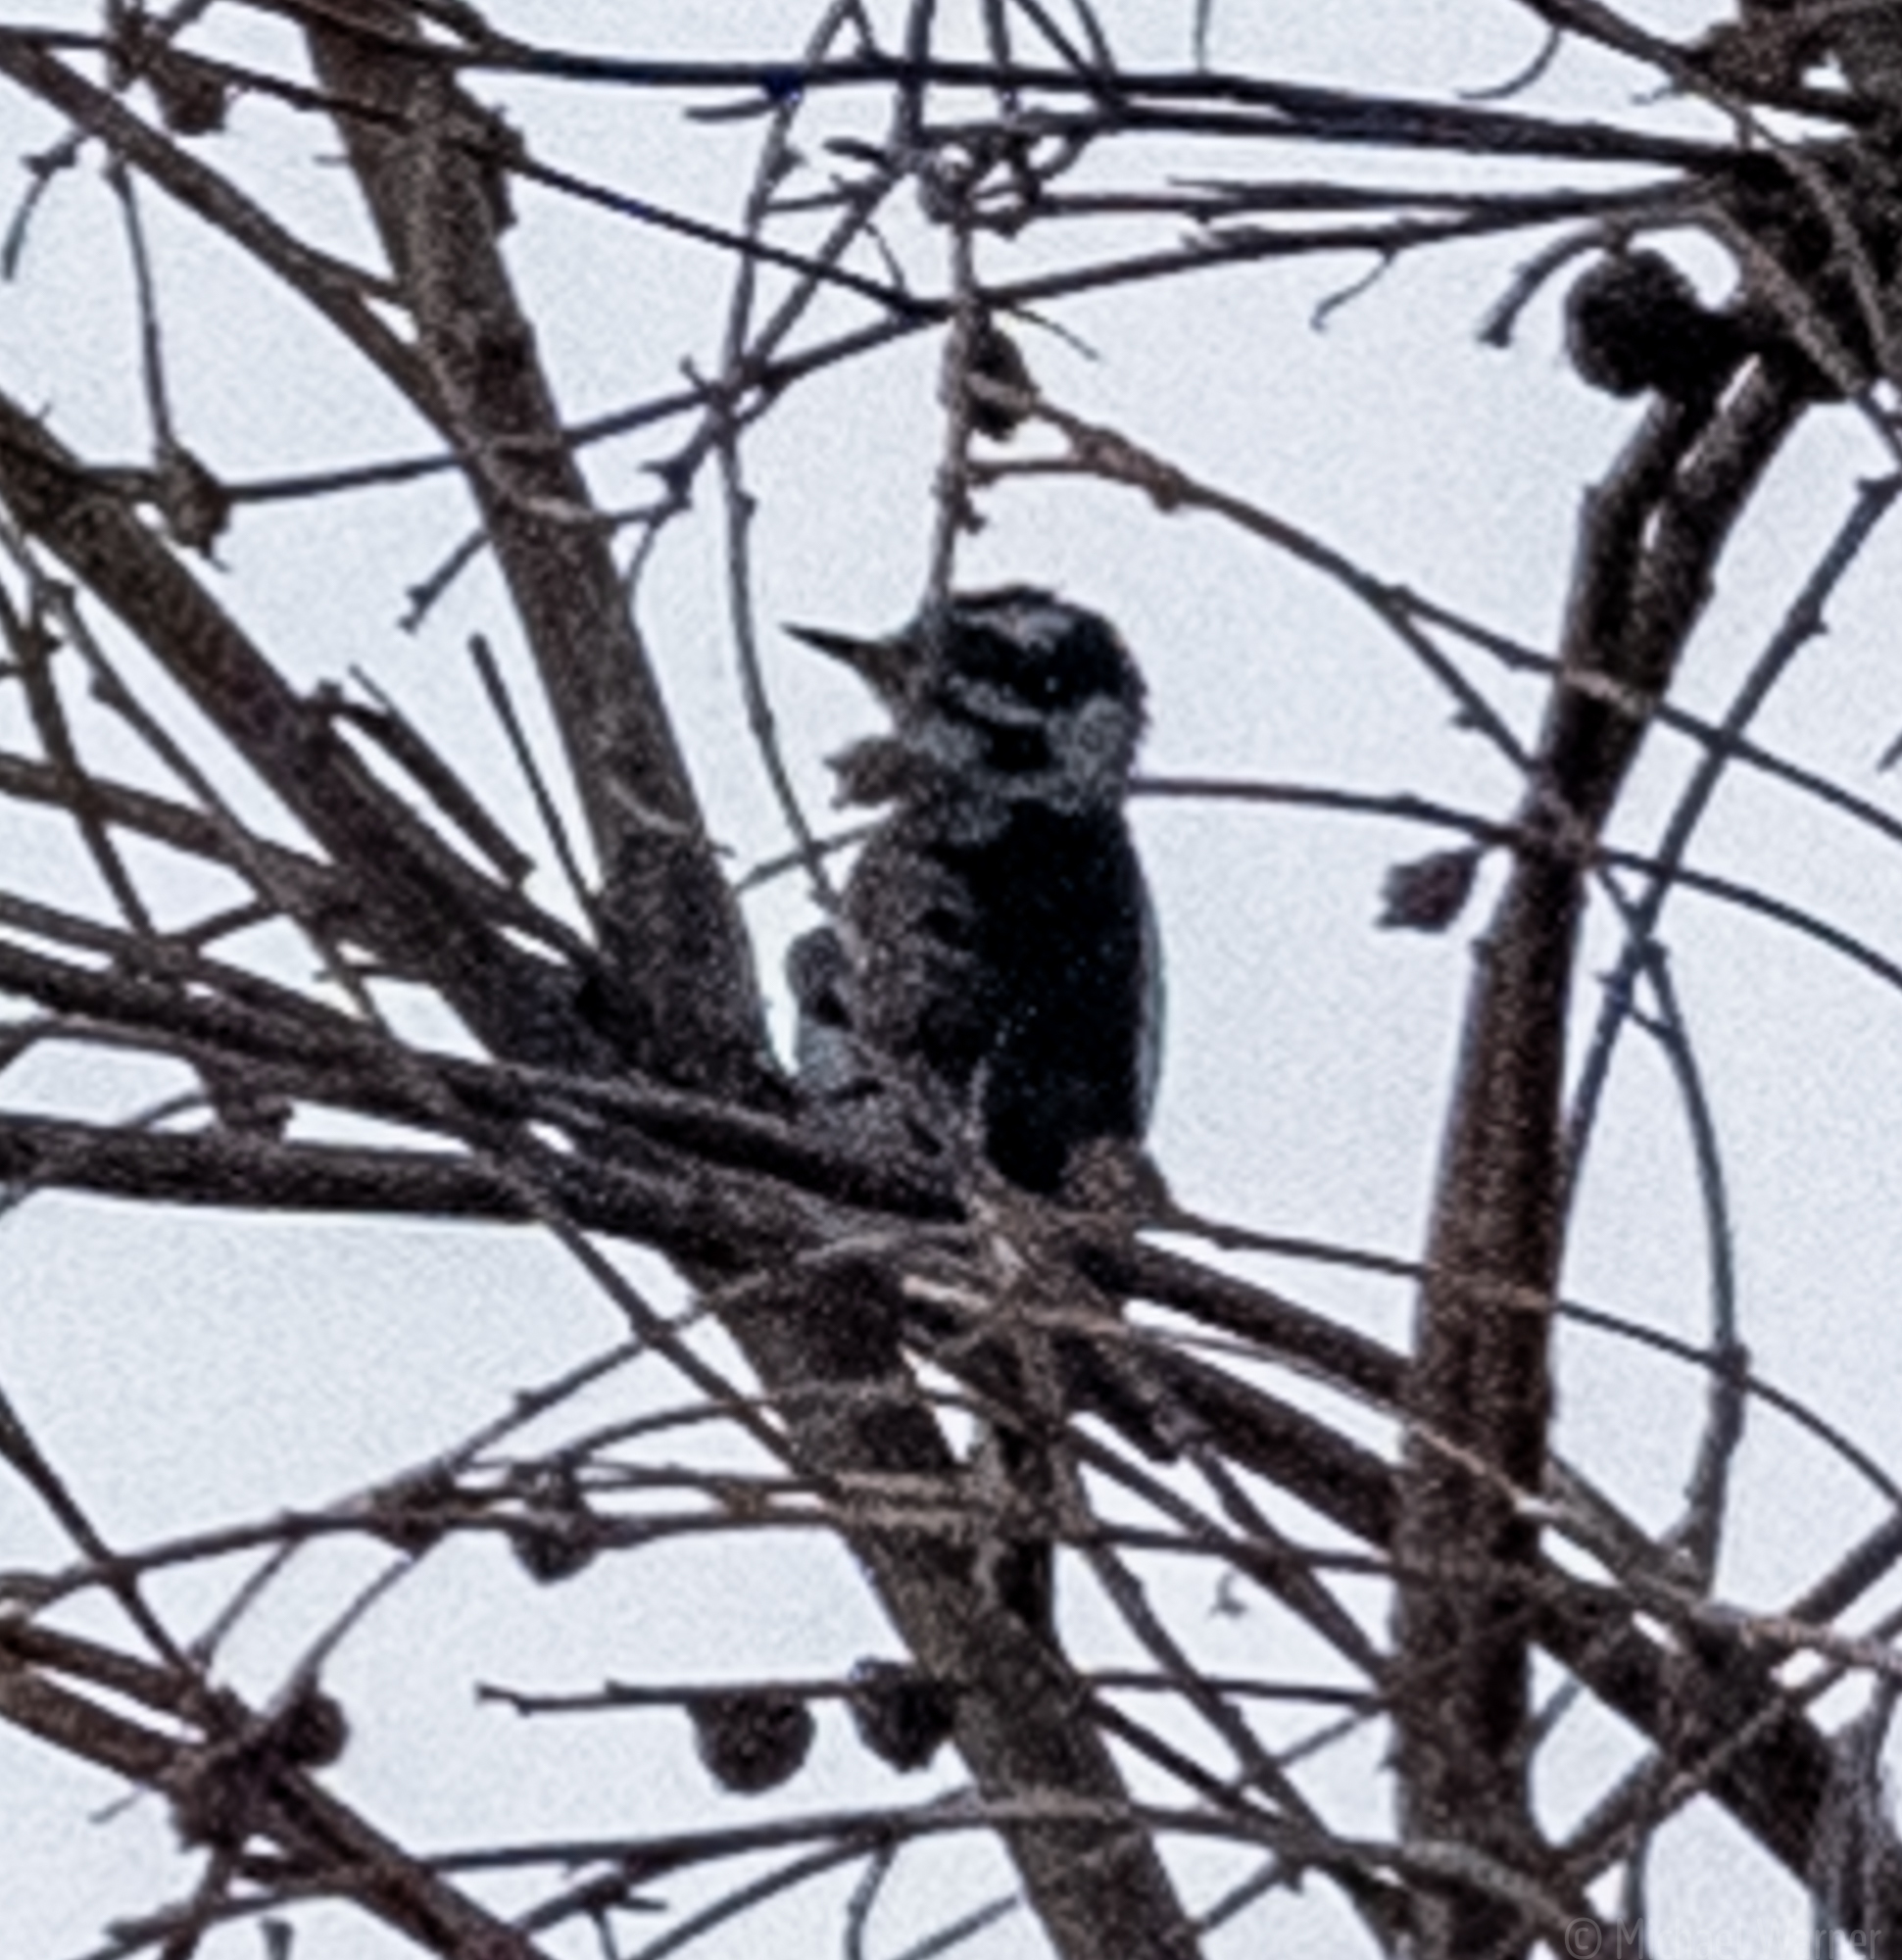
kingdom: Animalia
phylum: Chordata
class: Aves
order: Piciformes
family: Picidae
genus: Dryobates
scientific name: Dryobates pubescens
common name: Downy woodpecker
